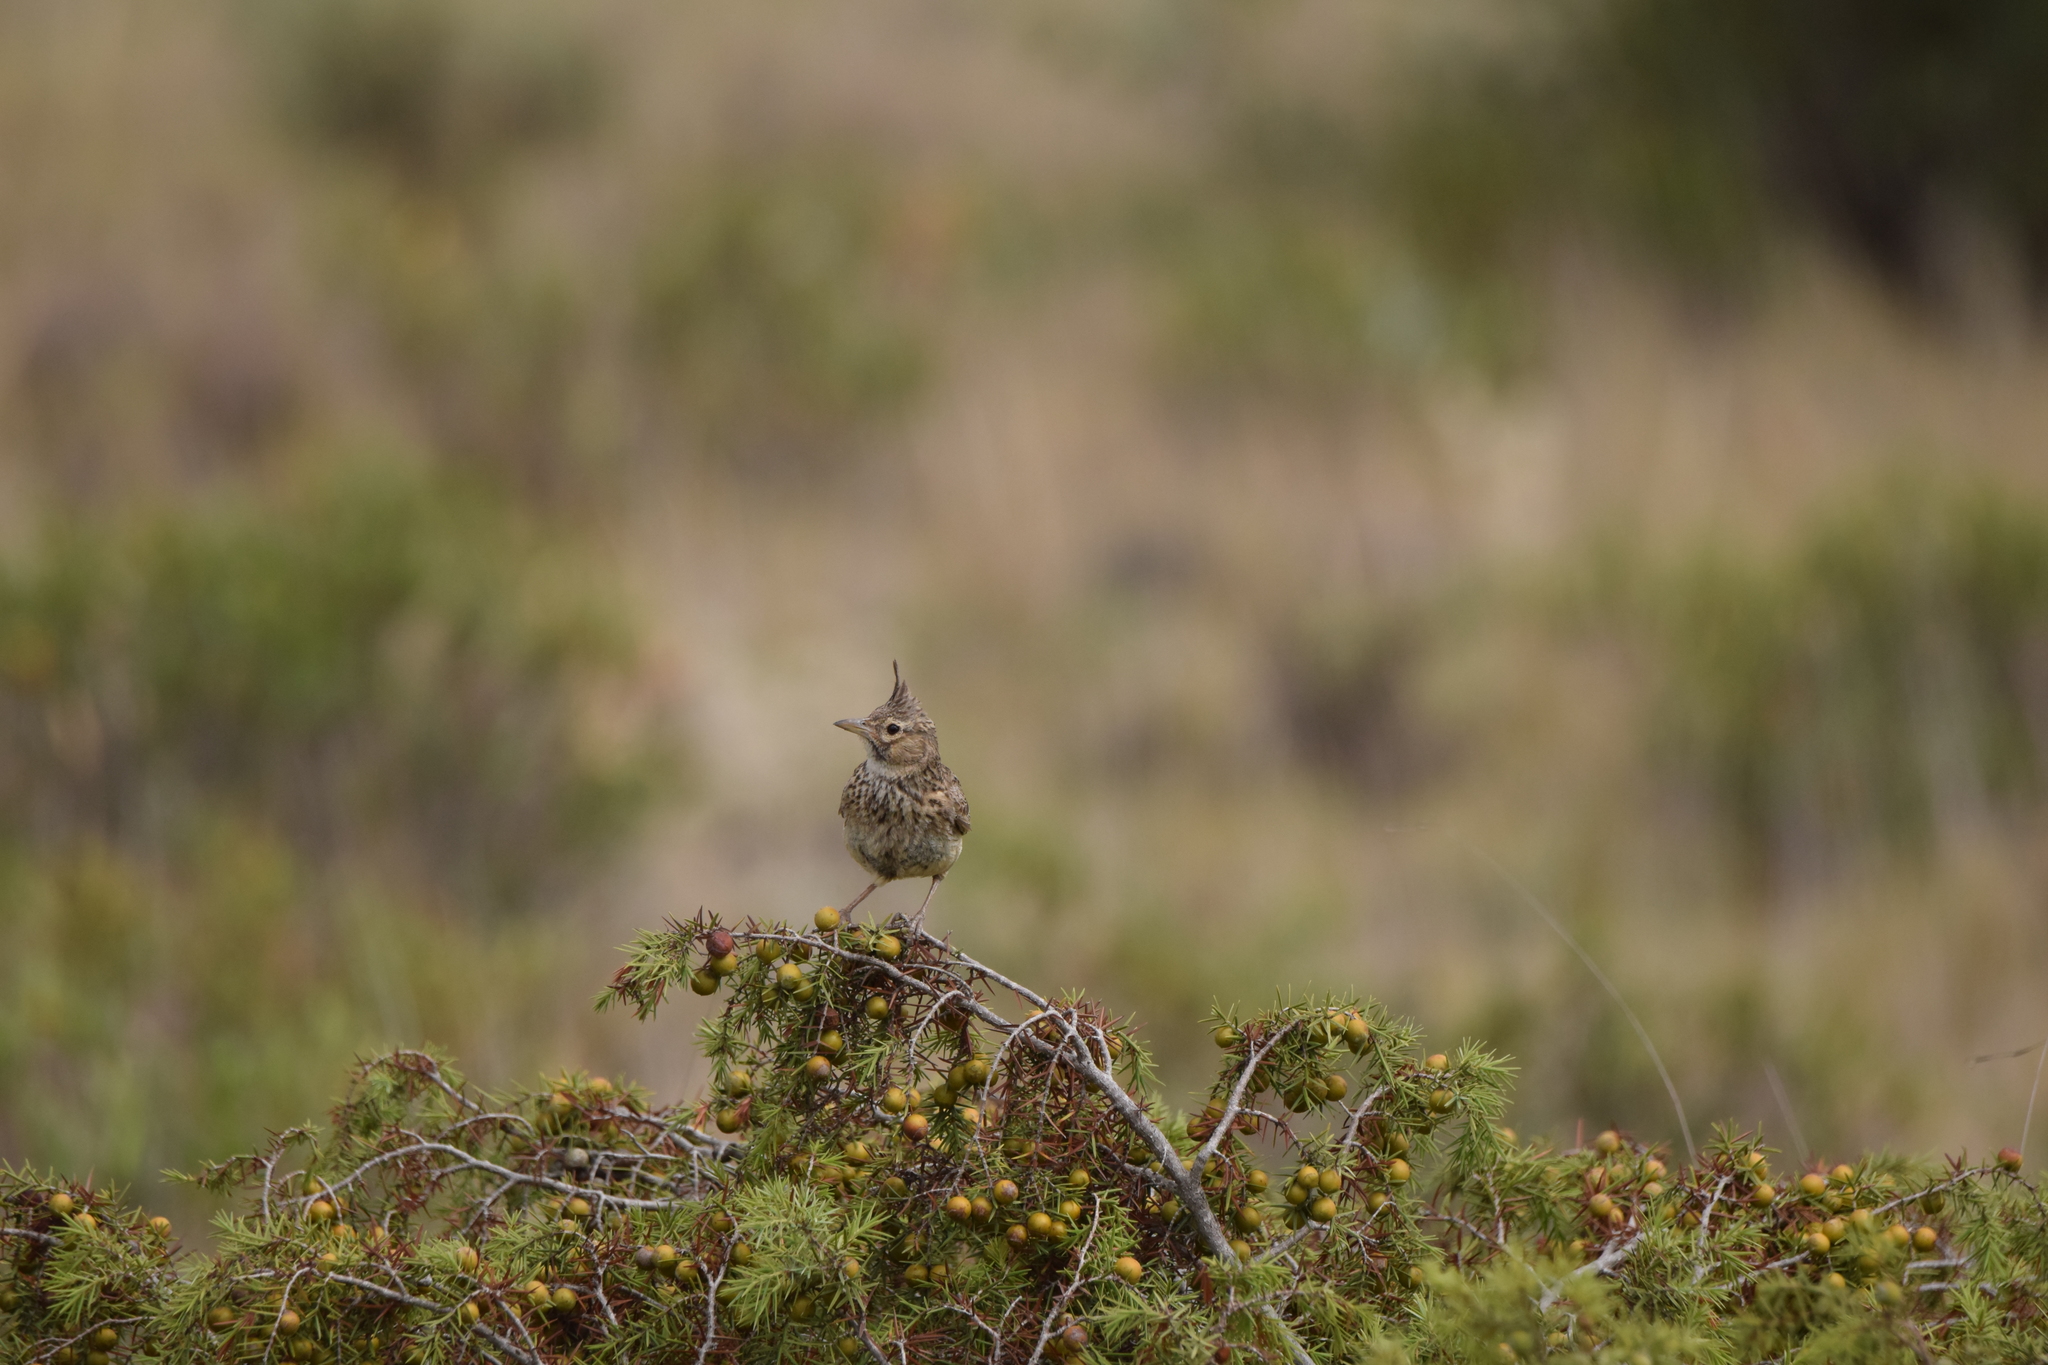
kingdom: Animalia
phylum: Chordata
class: Aves
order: Passeriformes
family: Alaudidae
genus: Galerida
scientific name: Galerida theklae
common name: Thekla lark
